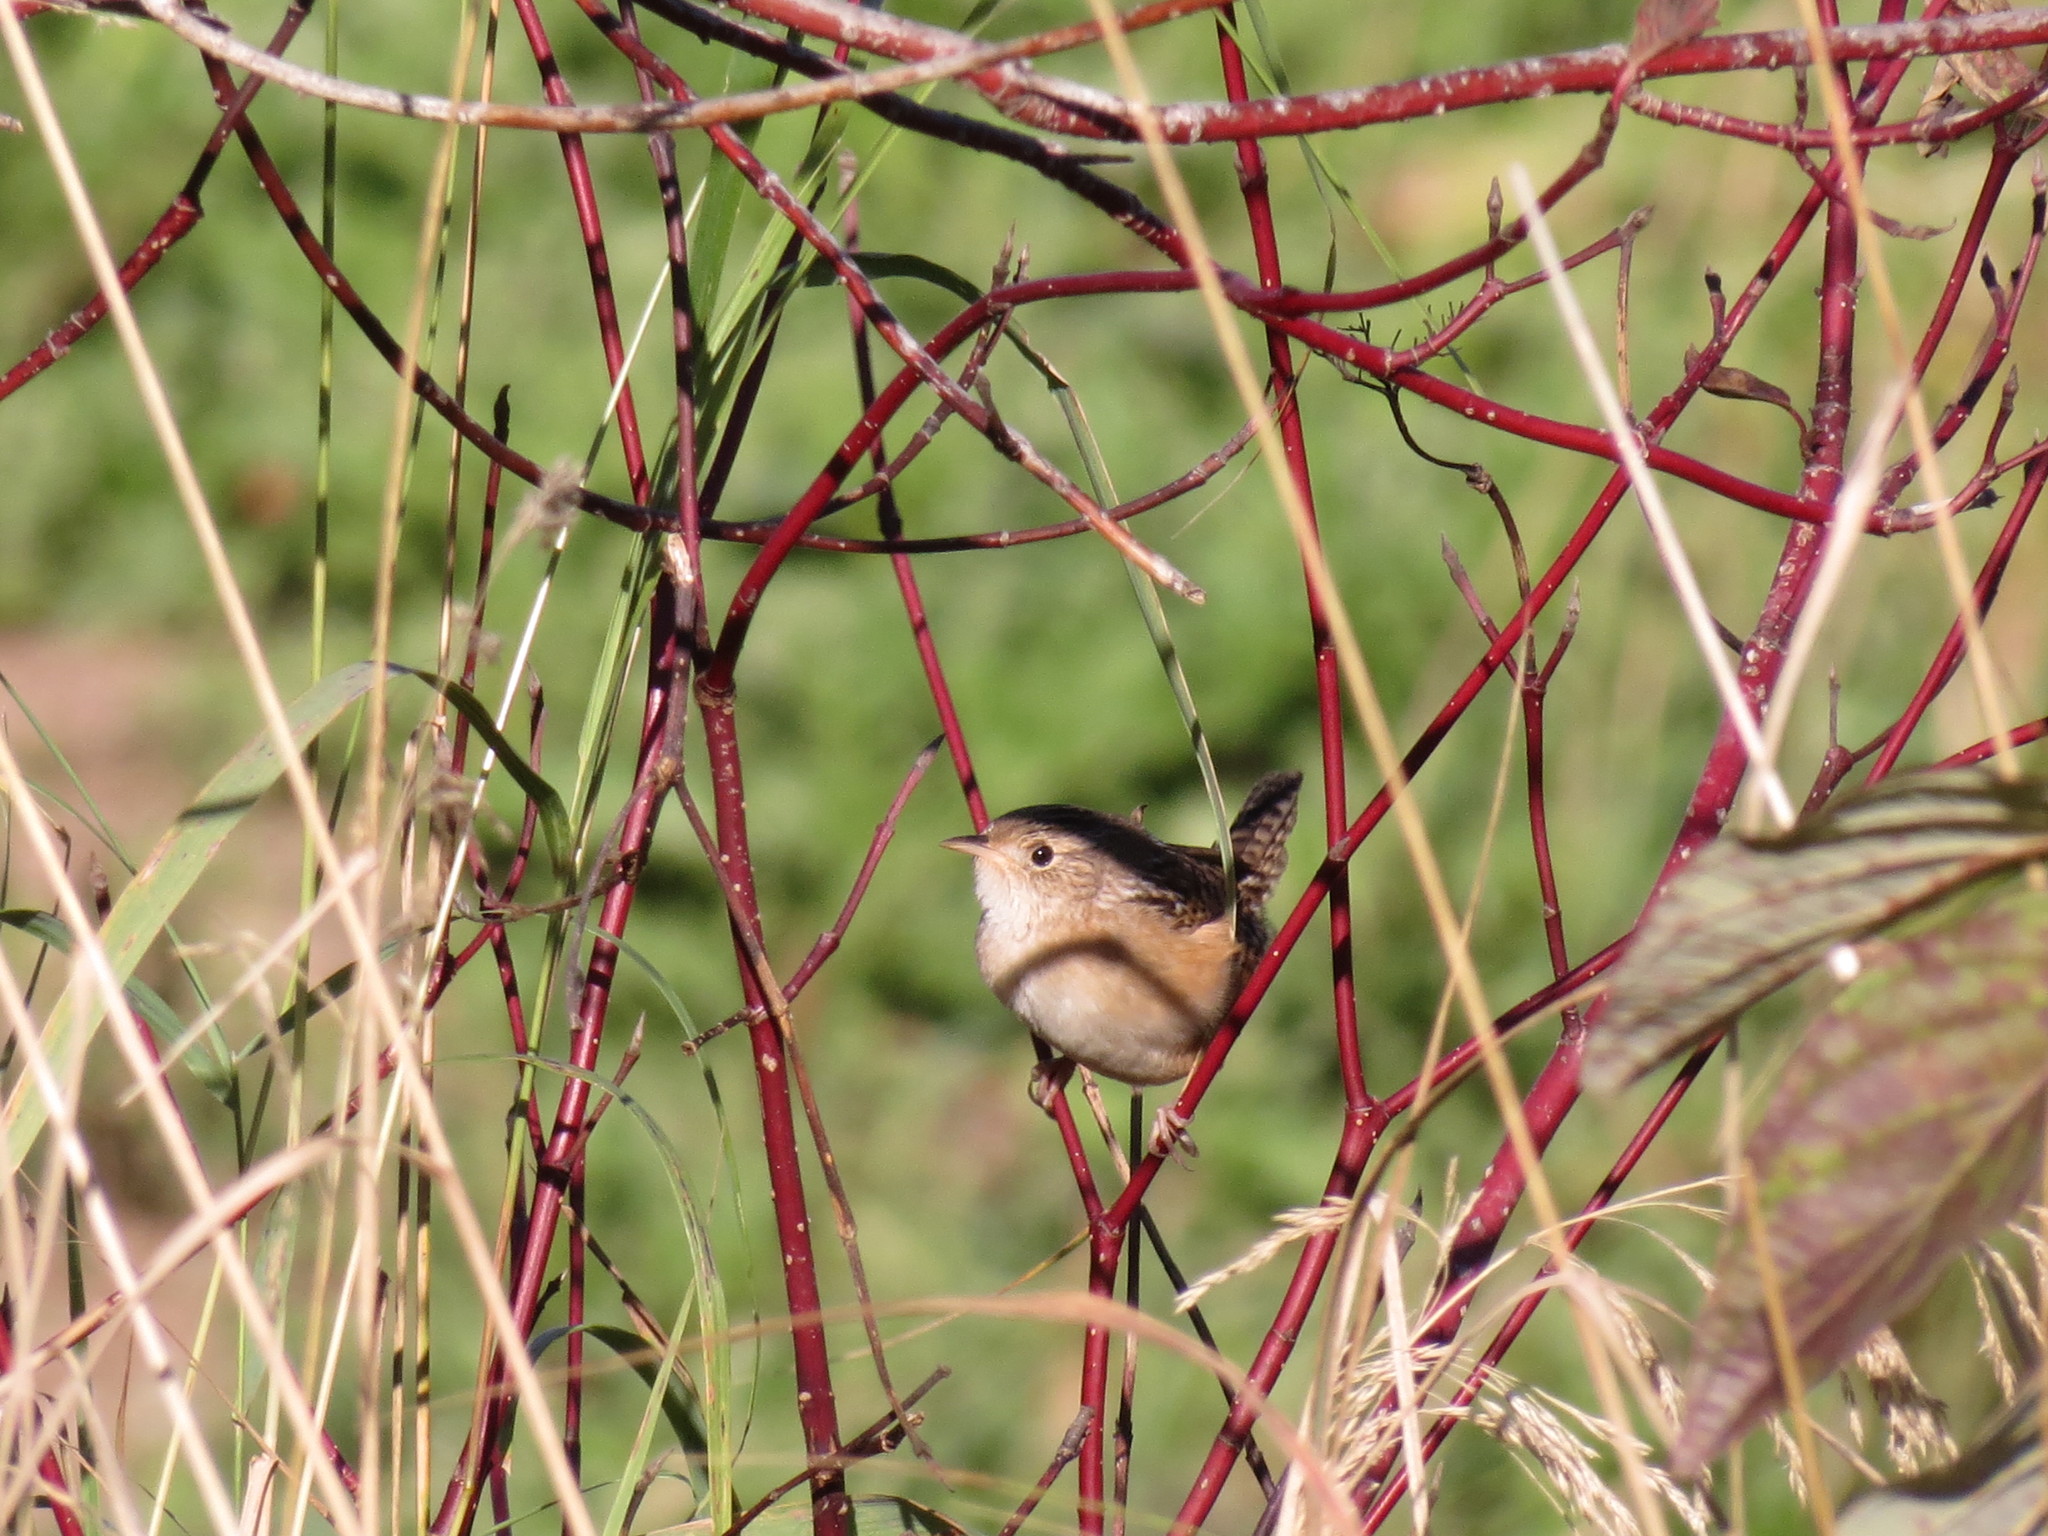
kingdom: Animalia
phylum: Chordata
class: Aves
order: Passeriformes
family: Troglodytidae
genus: Cistothorus
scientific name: Cistothorus platensis
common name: Sedge wren
